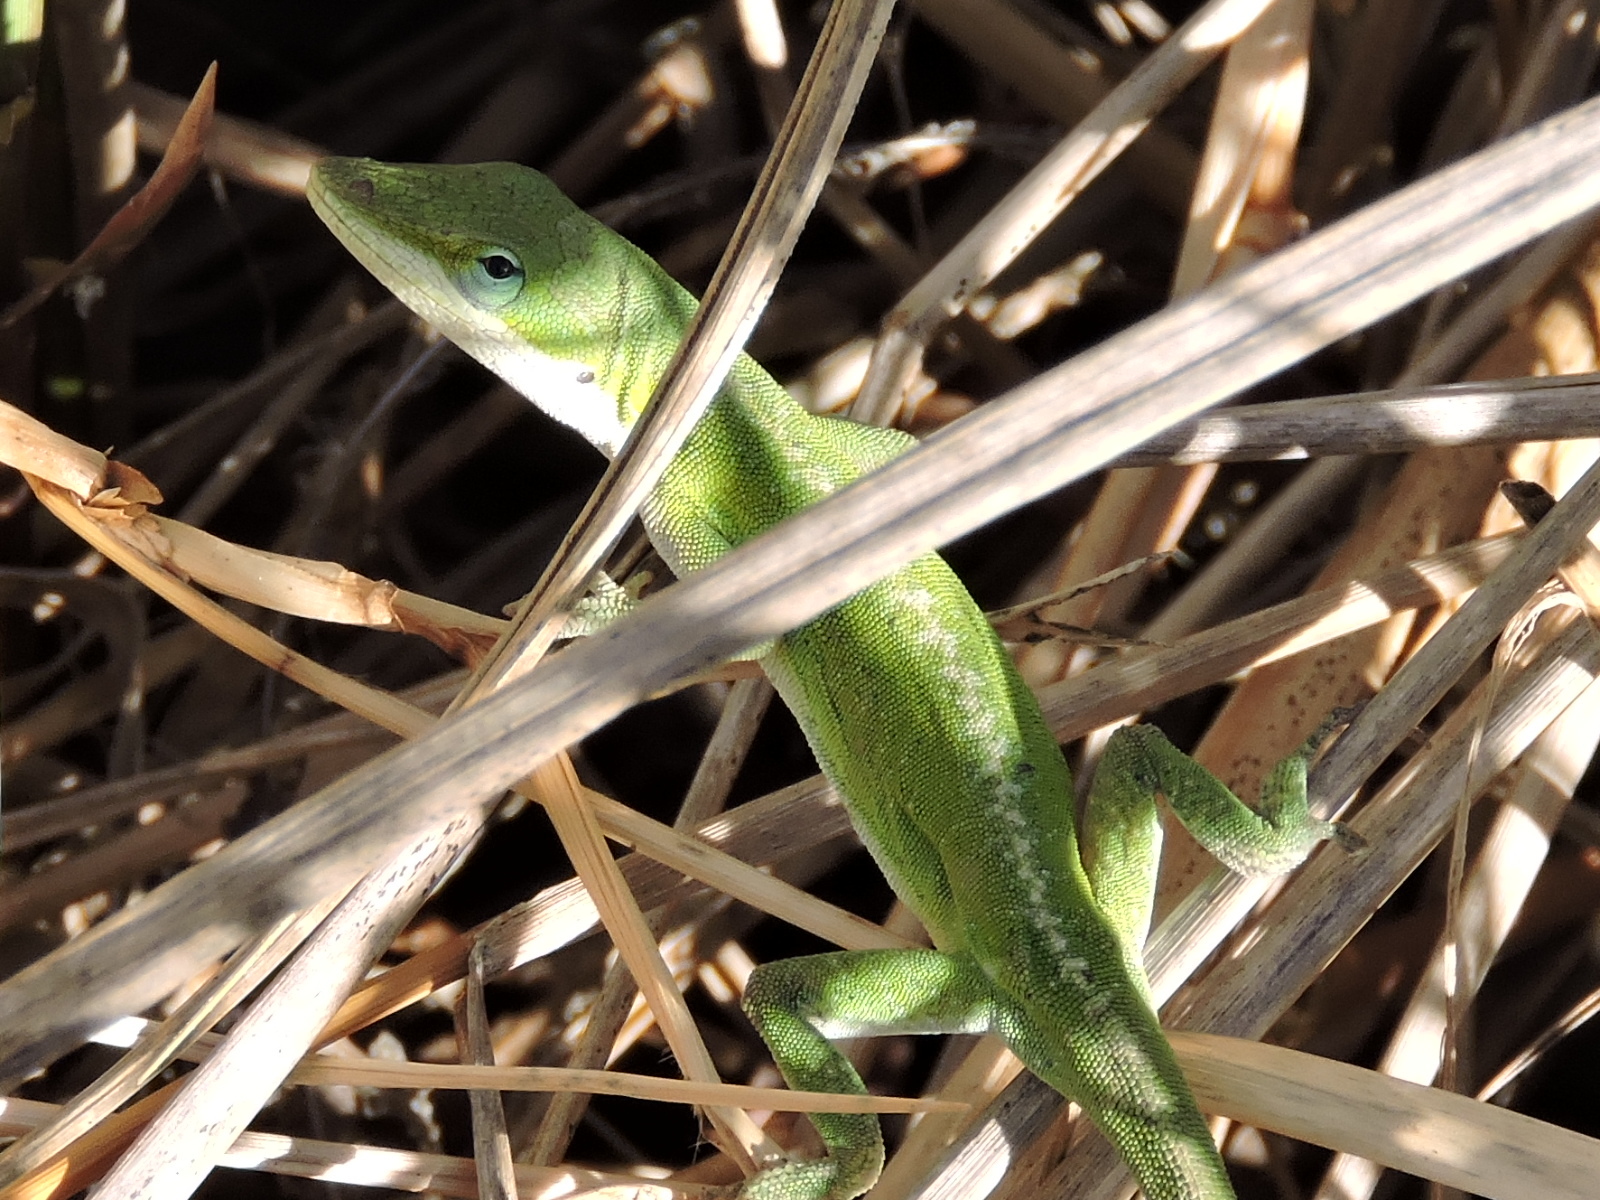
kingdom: Animalia
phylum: Chordata
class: Squamata
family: Dactyloidae
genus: Anolis
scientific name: Anolis carolinensis
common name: Green anole
